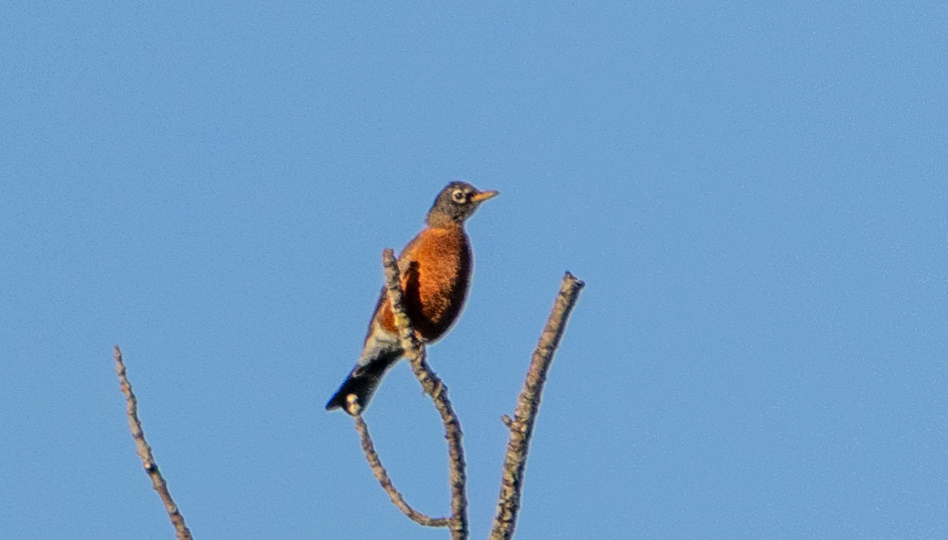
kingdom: Animalia
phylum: Chordata
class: Aves
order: Passeriformes
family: Turdidae
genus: Turdus
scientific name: Turdus migratorius
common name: American robin
